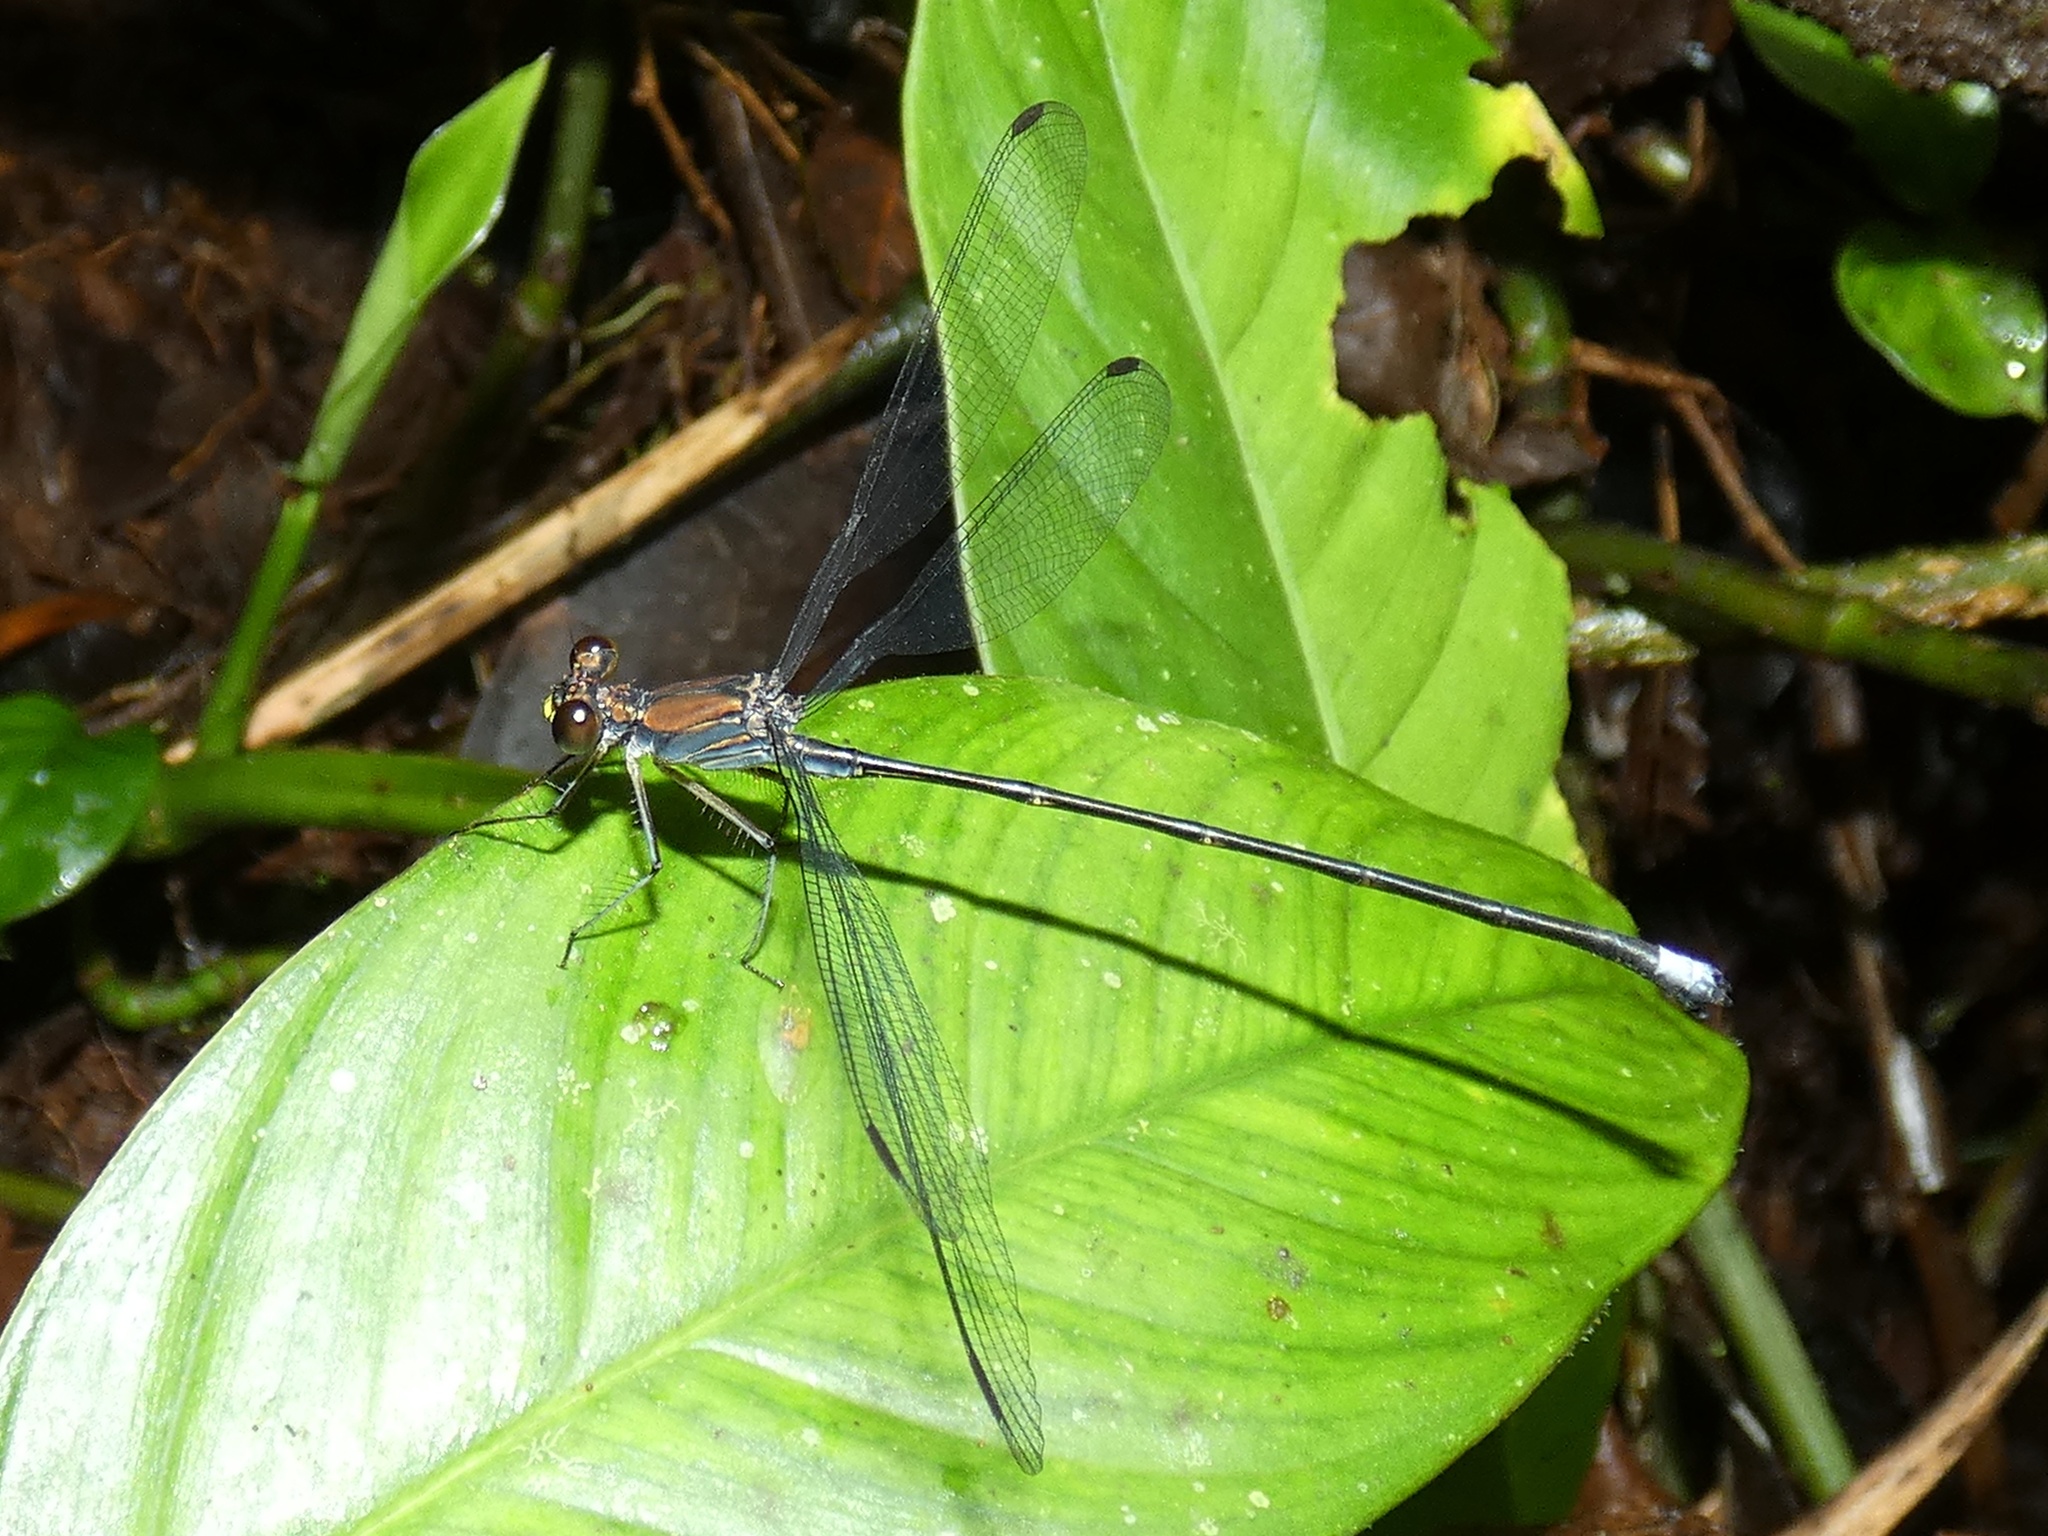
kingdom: Animalia
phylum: Arthropoda
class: Insecta
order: Odonata
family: Philogeniidae
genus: Philogenia
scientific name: Philogenia leonora
